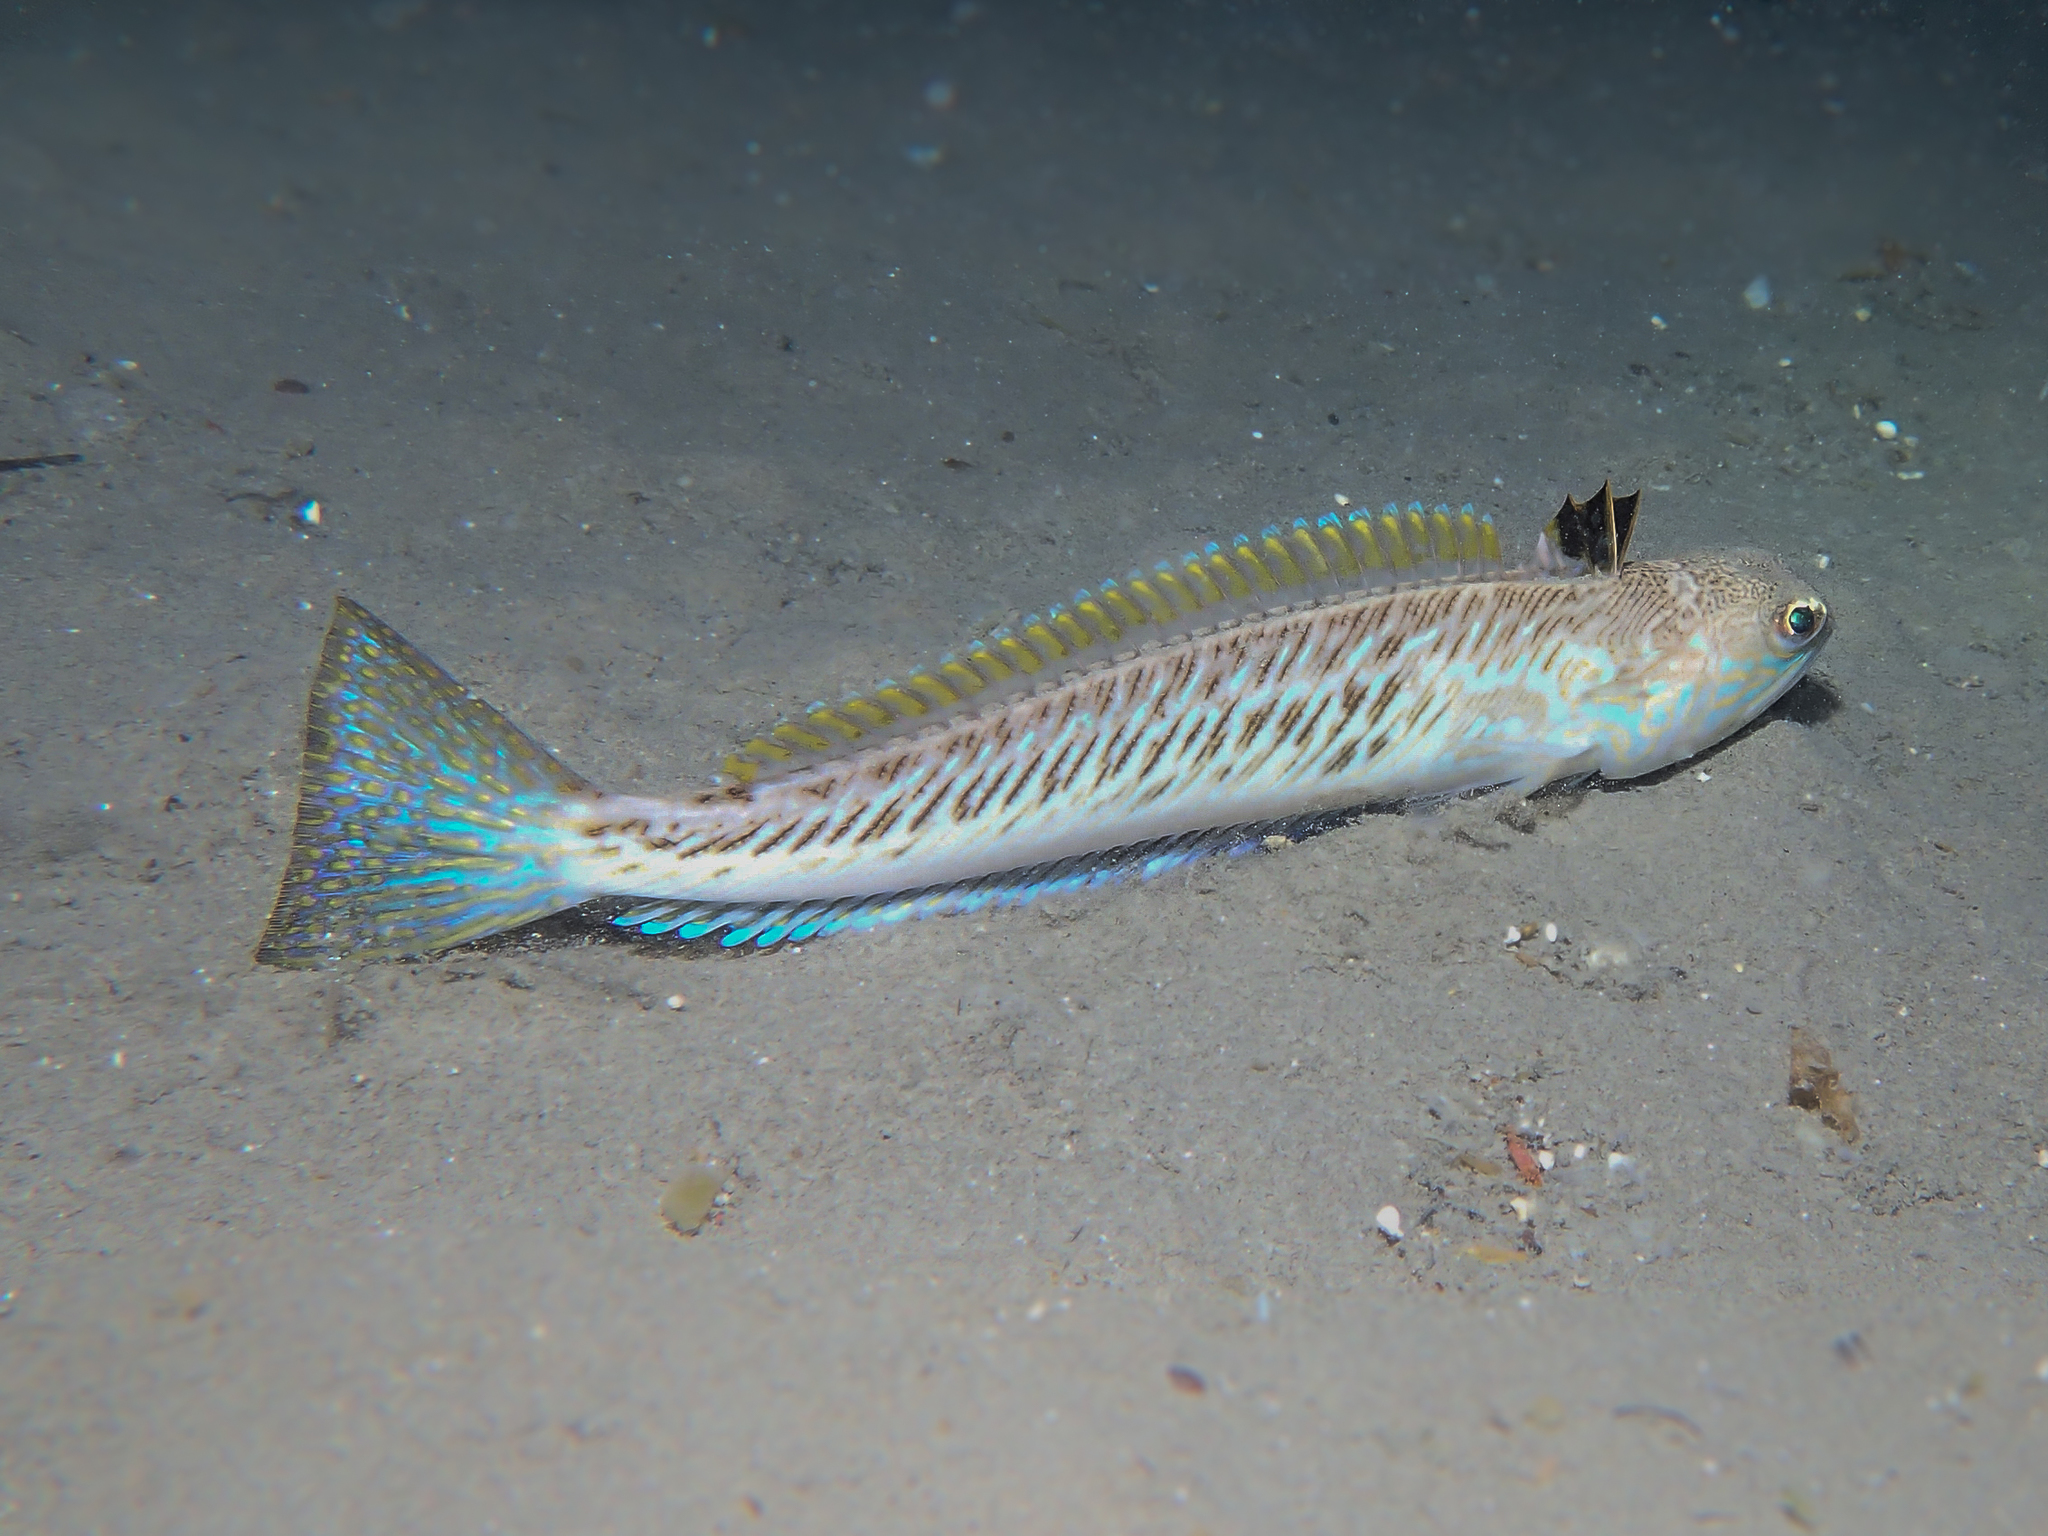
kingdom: Animalia
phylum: Chordata
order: Perciformes
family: Trachinidae
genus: Trachinus
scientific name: Trachinus draco
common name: Greater weever
